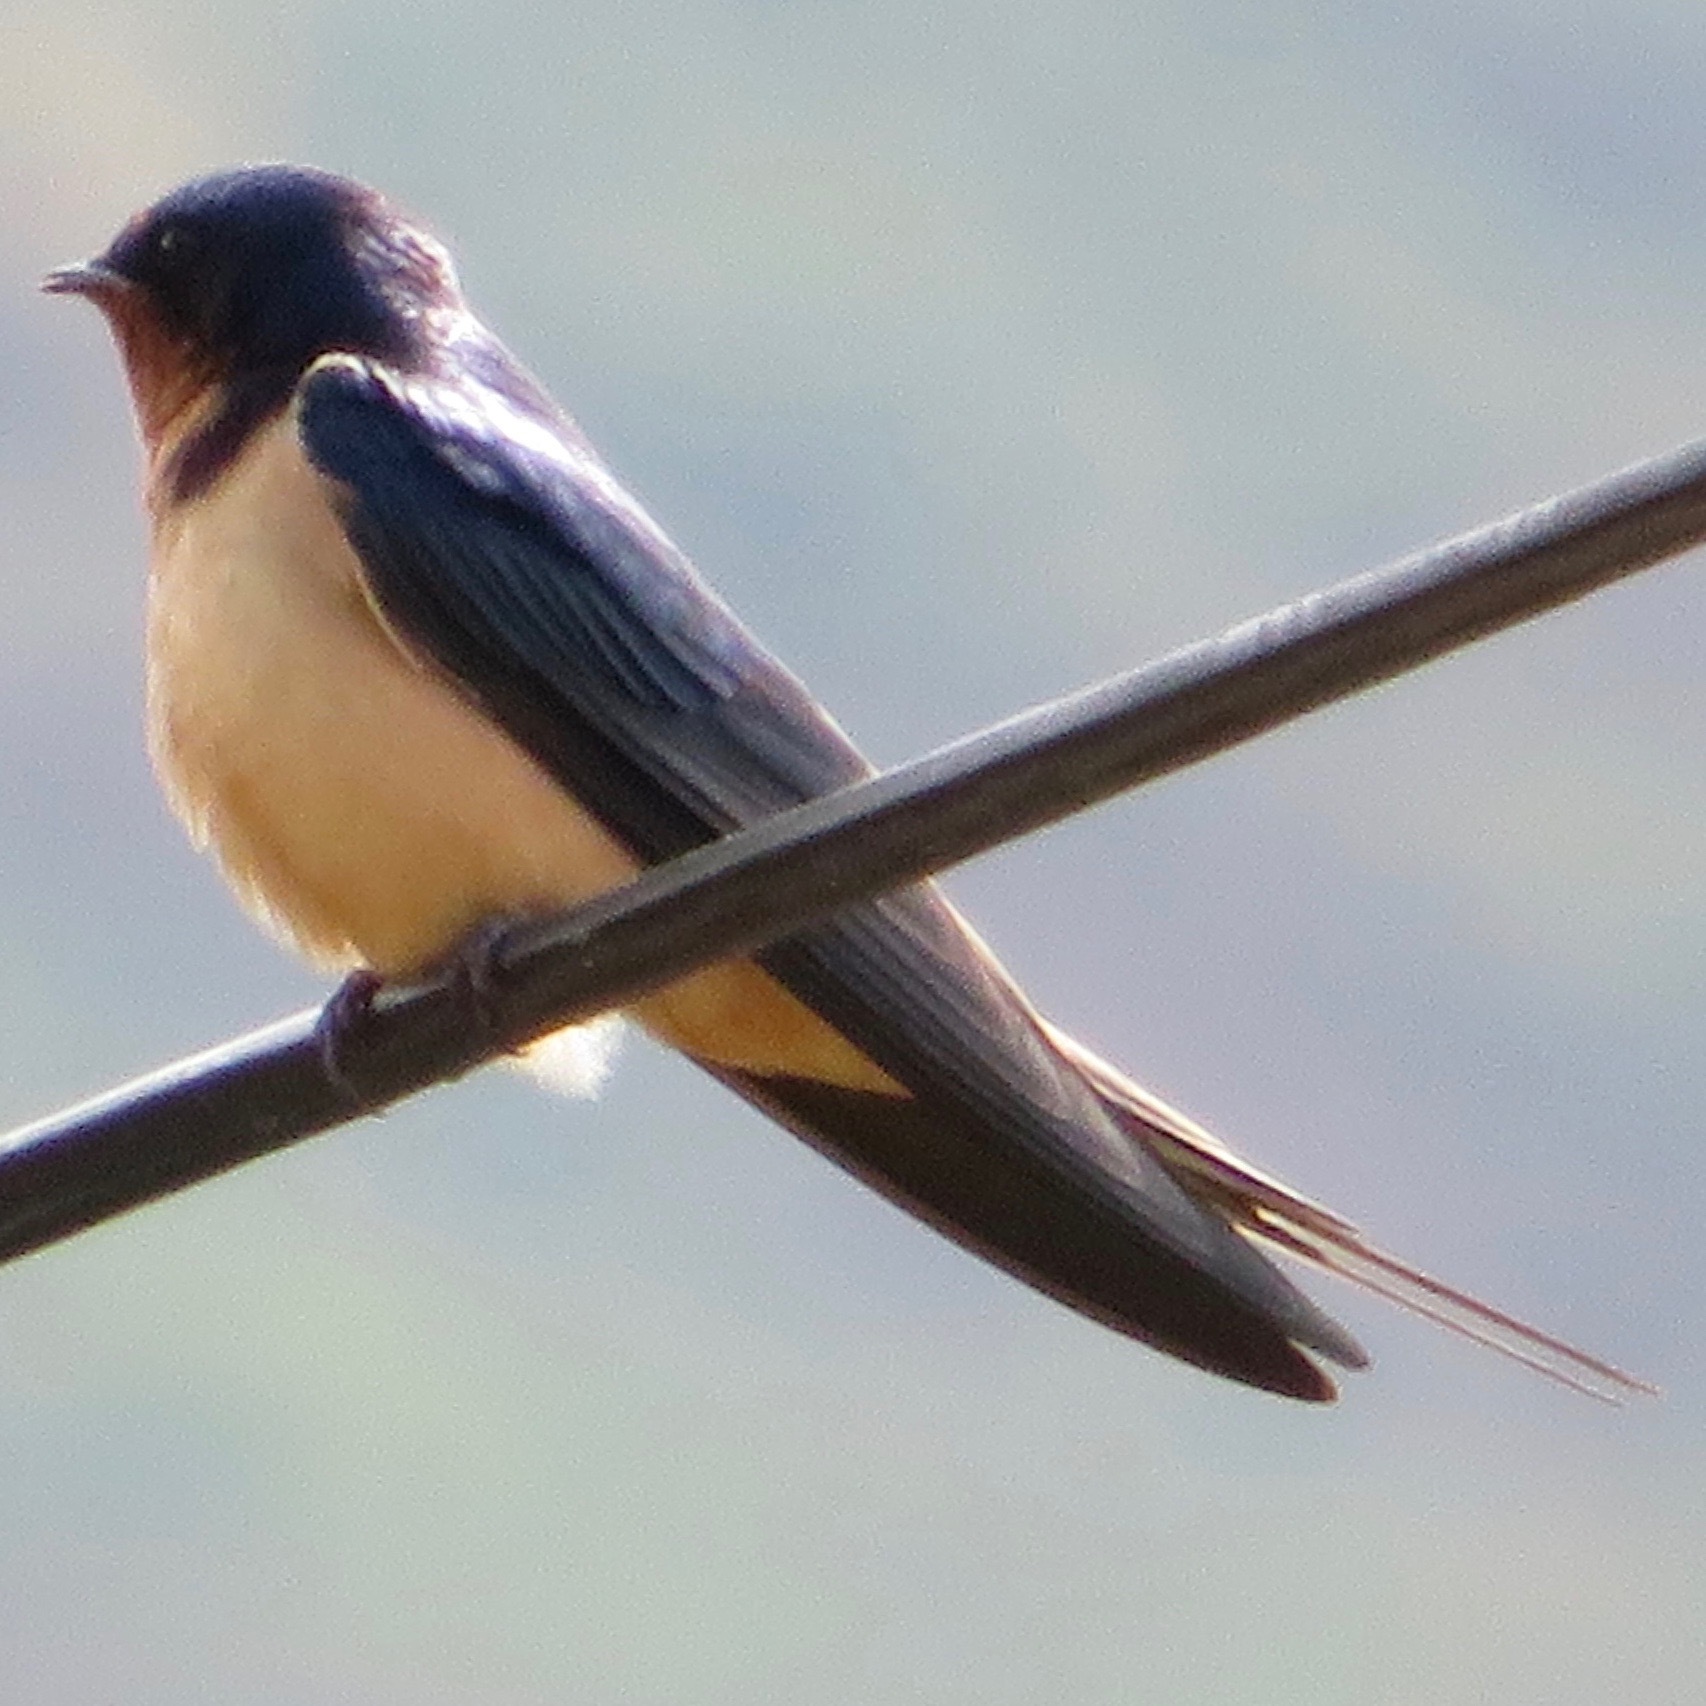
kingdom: Animalia
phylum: Chordata
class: Aves
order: Passeriformes
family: Hirundinidae
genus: Hirundo
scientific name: Hirundo rustica
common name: Barn swallow
